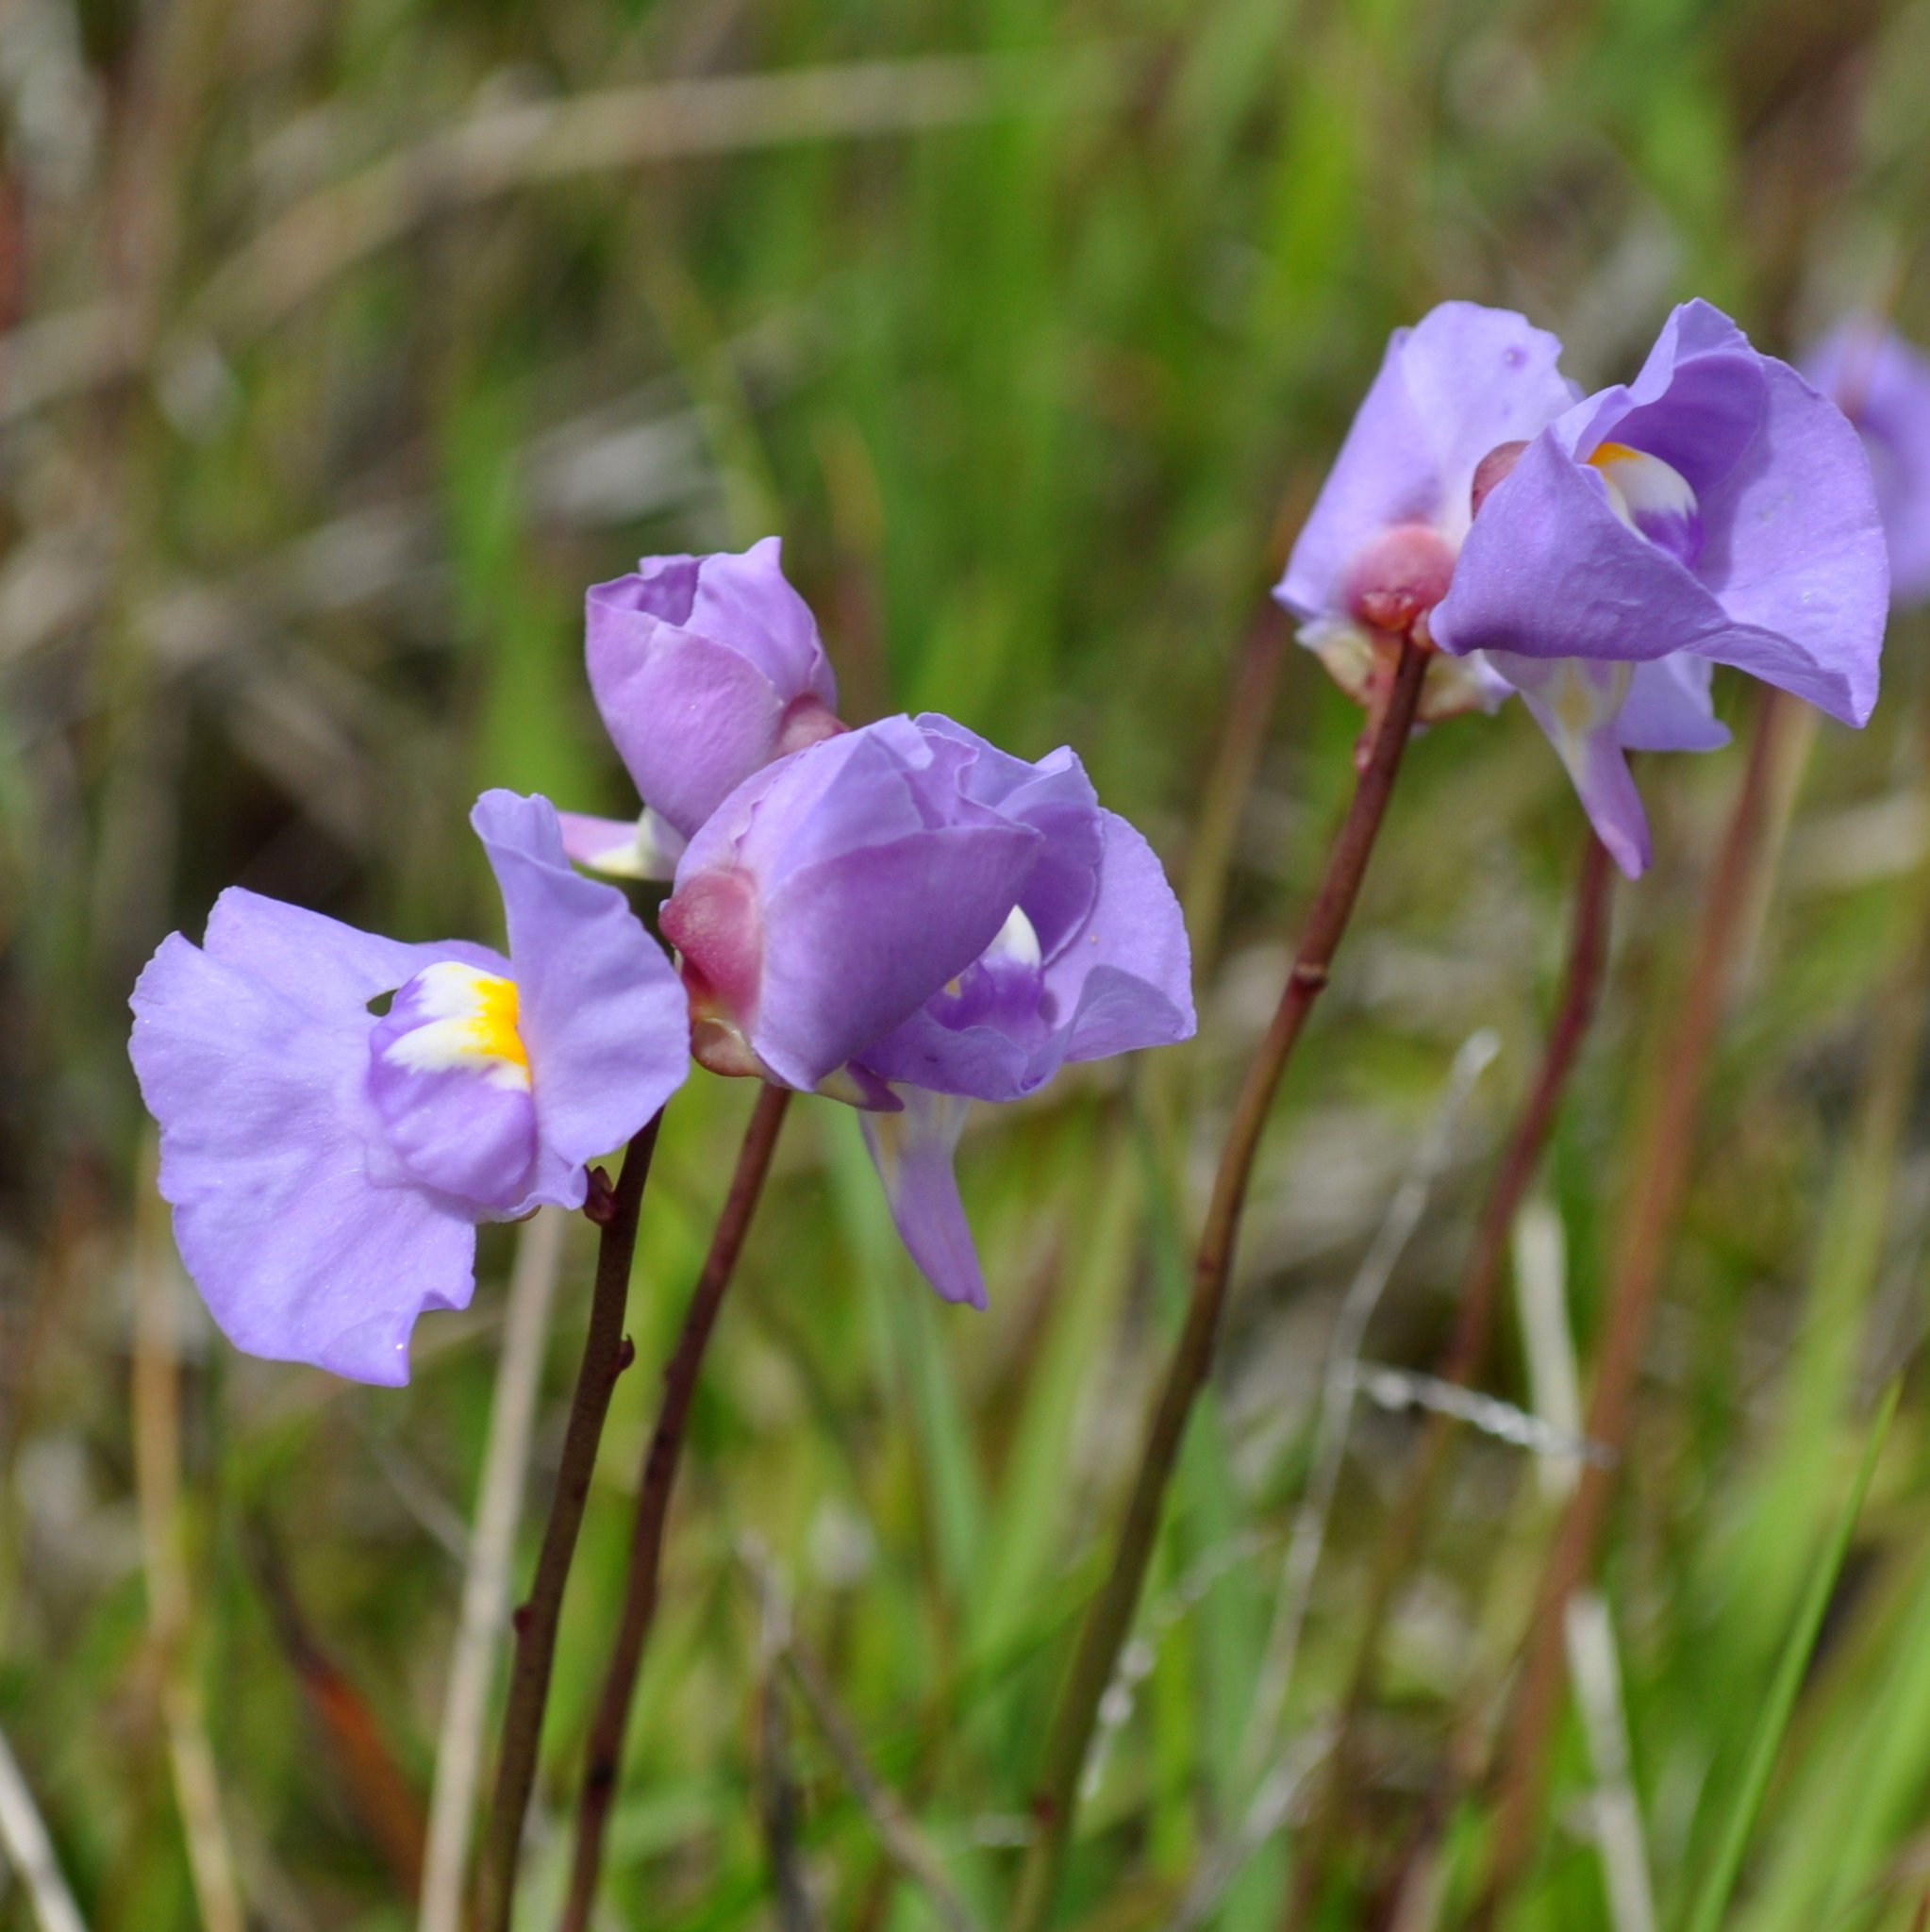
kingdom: Plantae
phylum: Tracheophyta
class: Magnoliopsida
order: Lamiales
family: Lentibulariaceae
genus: Utricularia
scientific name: Utricularia tricolor
